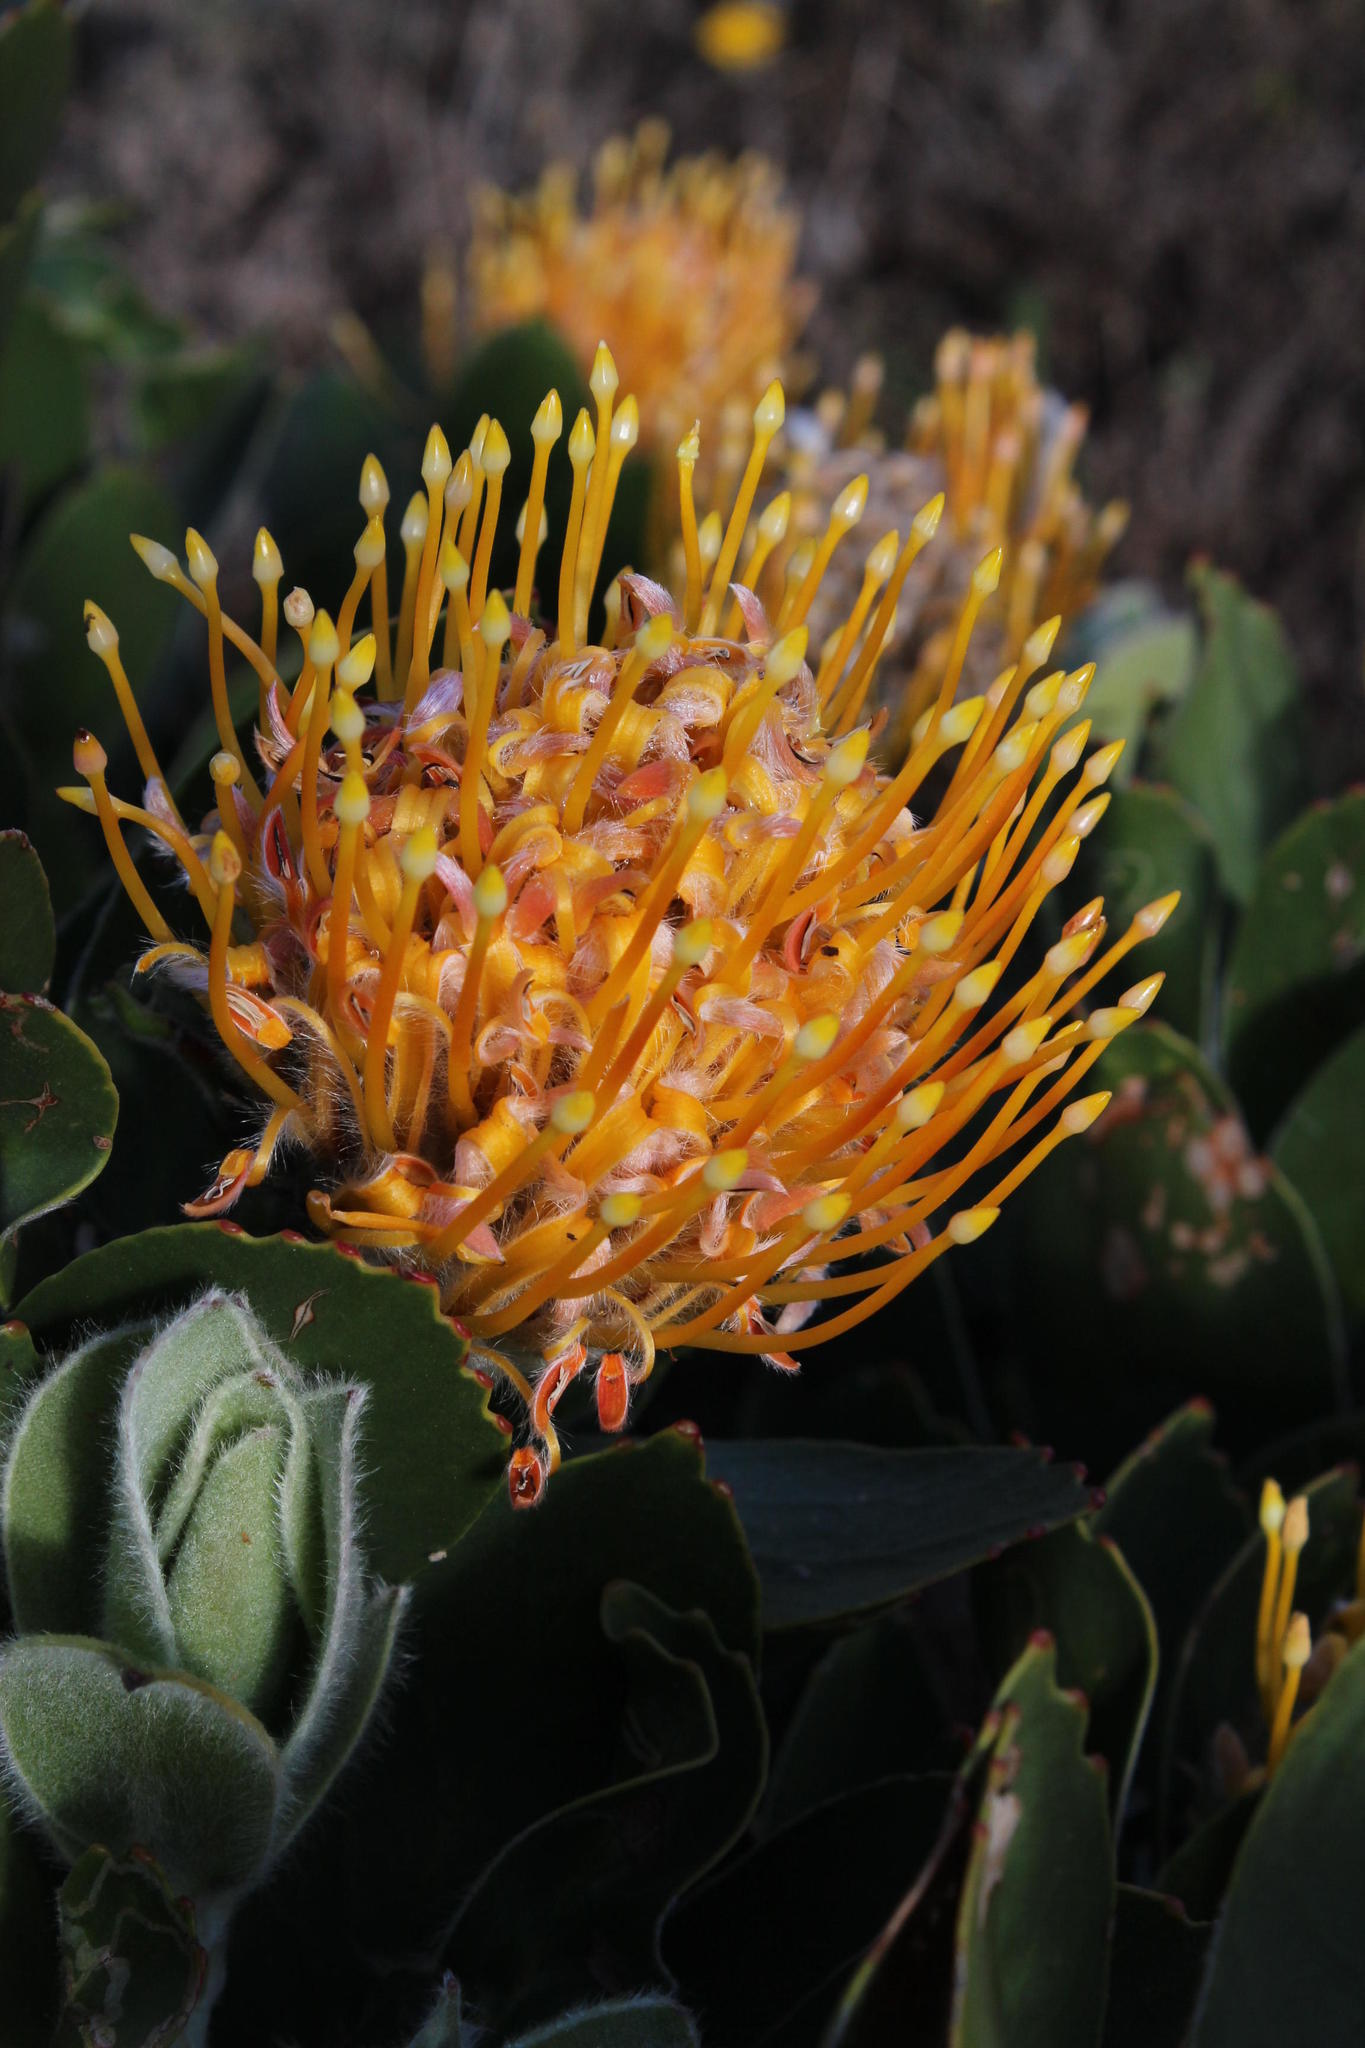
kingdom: Plantae
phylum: Tracheophyta
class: Magnoliopsida
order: Proteales
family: Proteaceae
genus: Leucospermum
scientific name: Leucospermum conocarpodendron
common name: Tree pincushion
